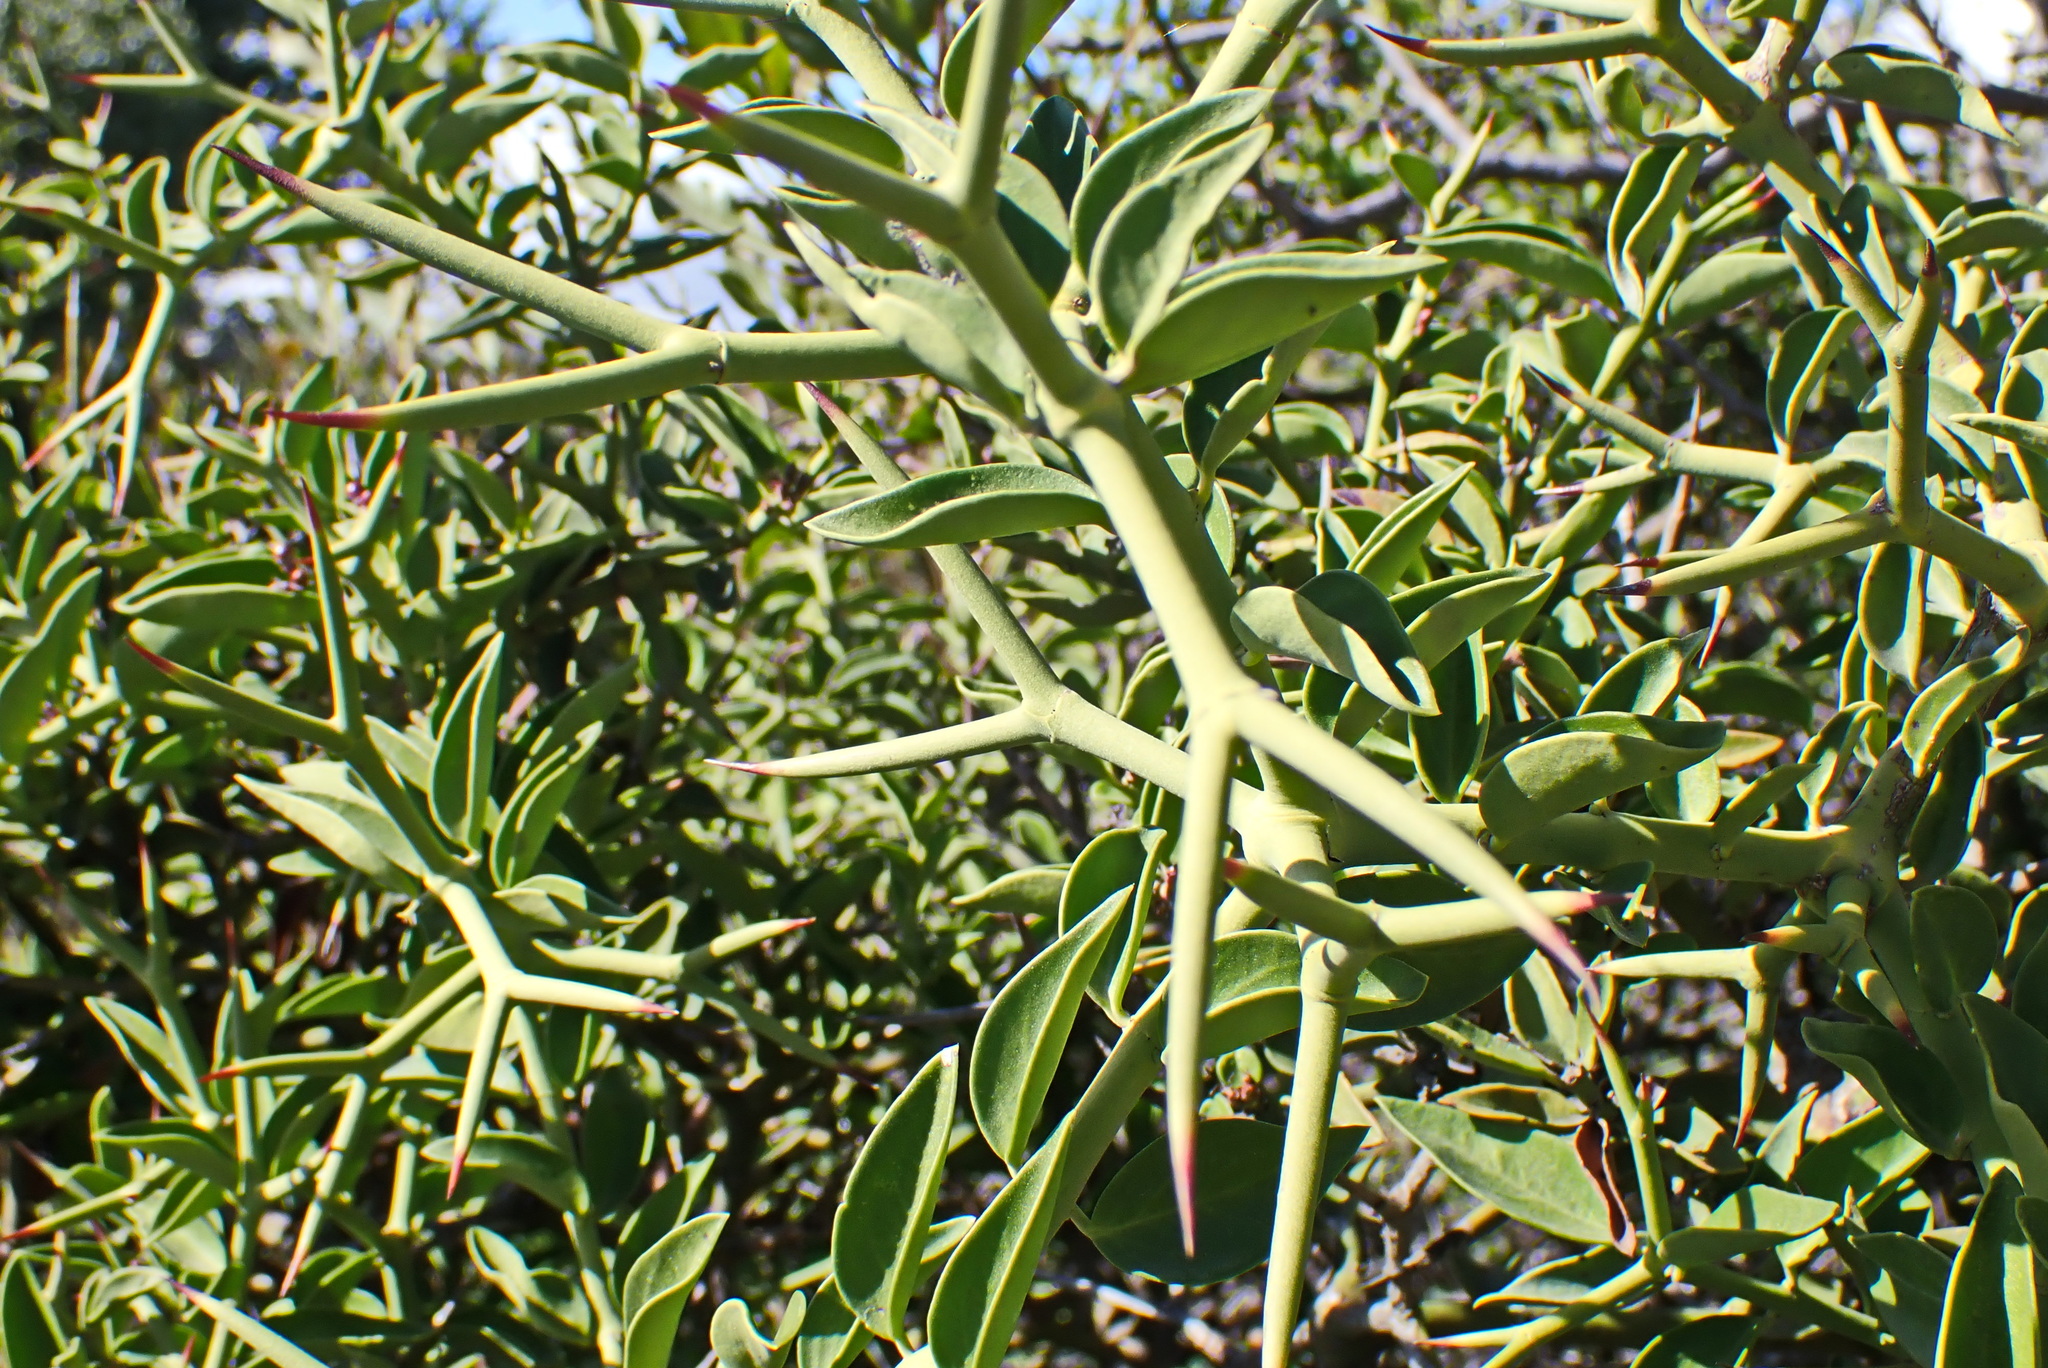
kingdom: Plantae
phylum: Tracheophyta
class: Magnoliopsida
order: Gentianales
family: Apocynaceae
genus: Carissa
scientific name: Carissa haematocarpa
